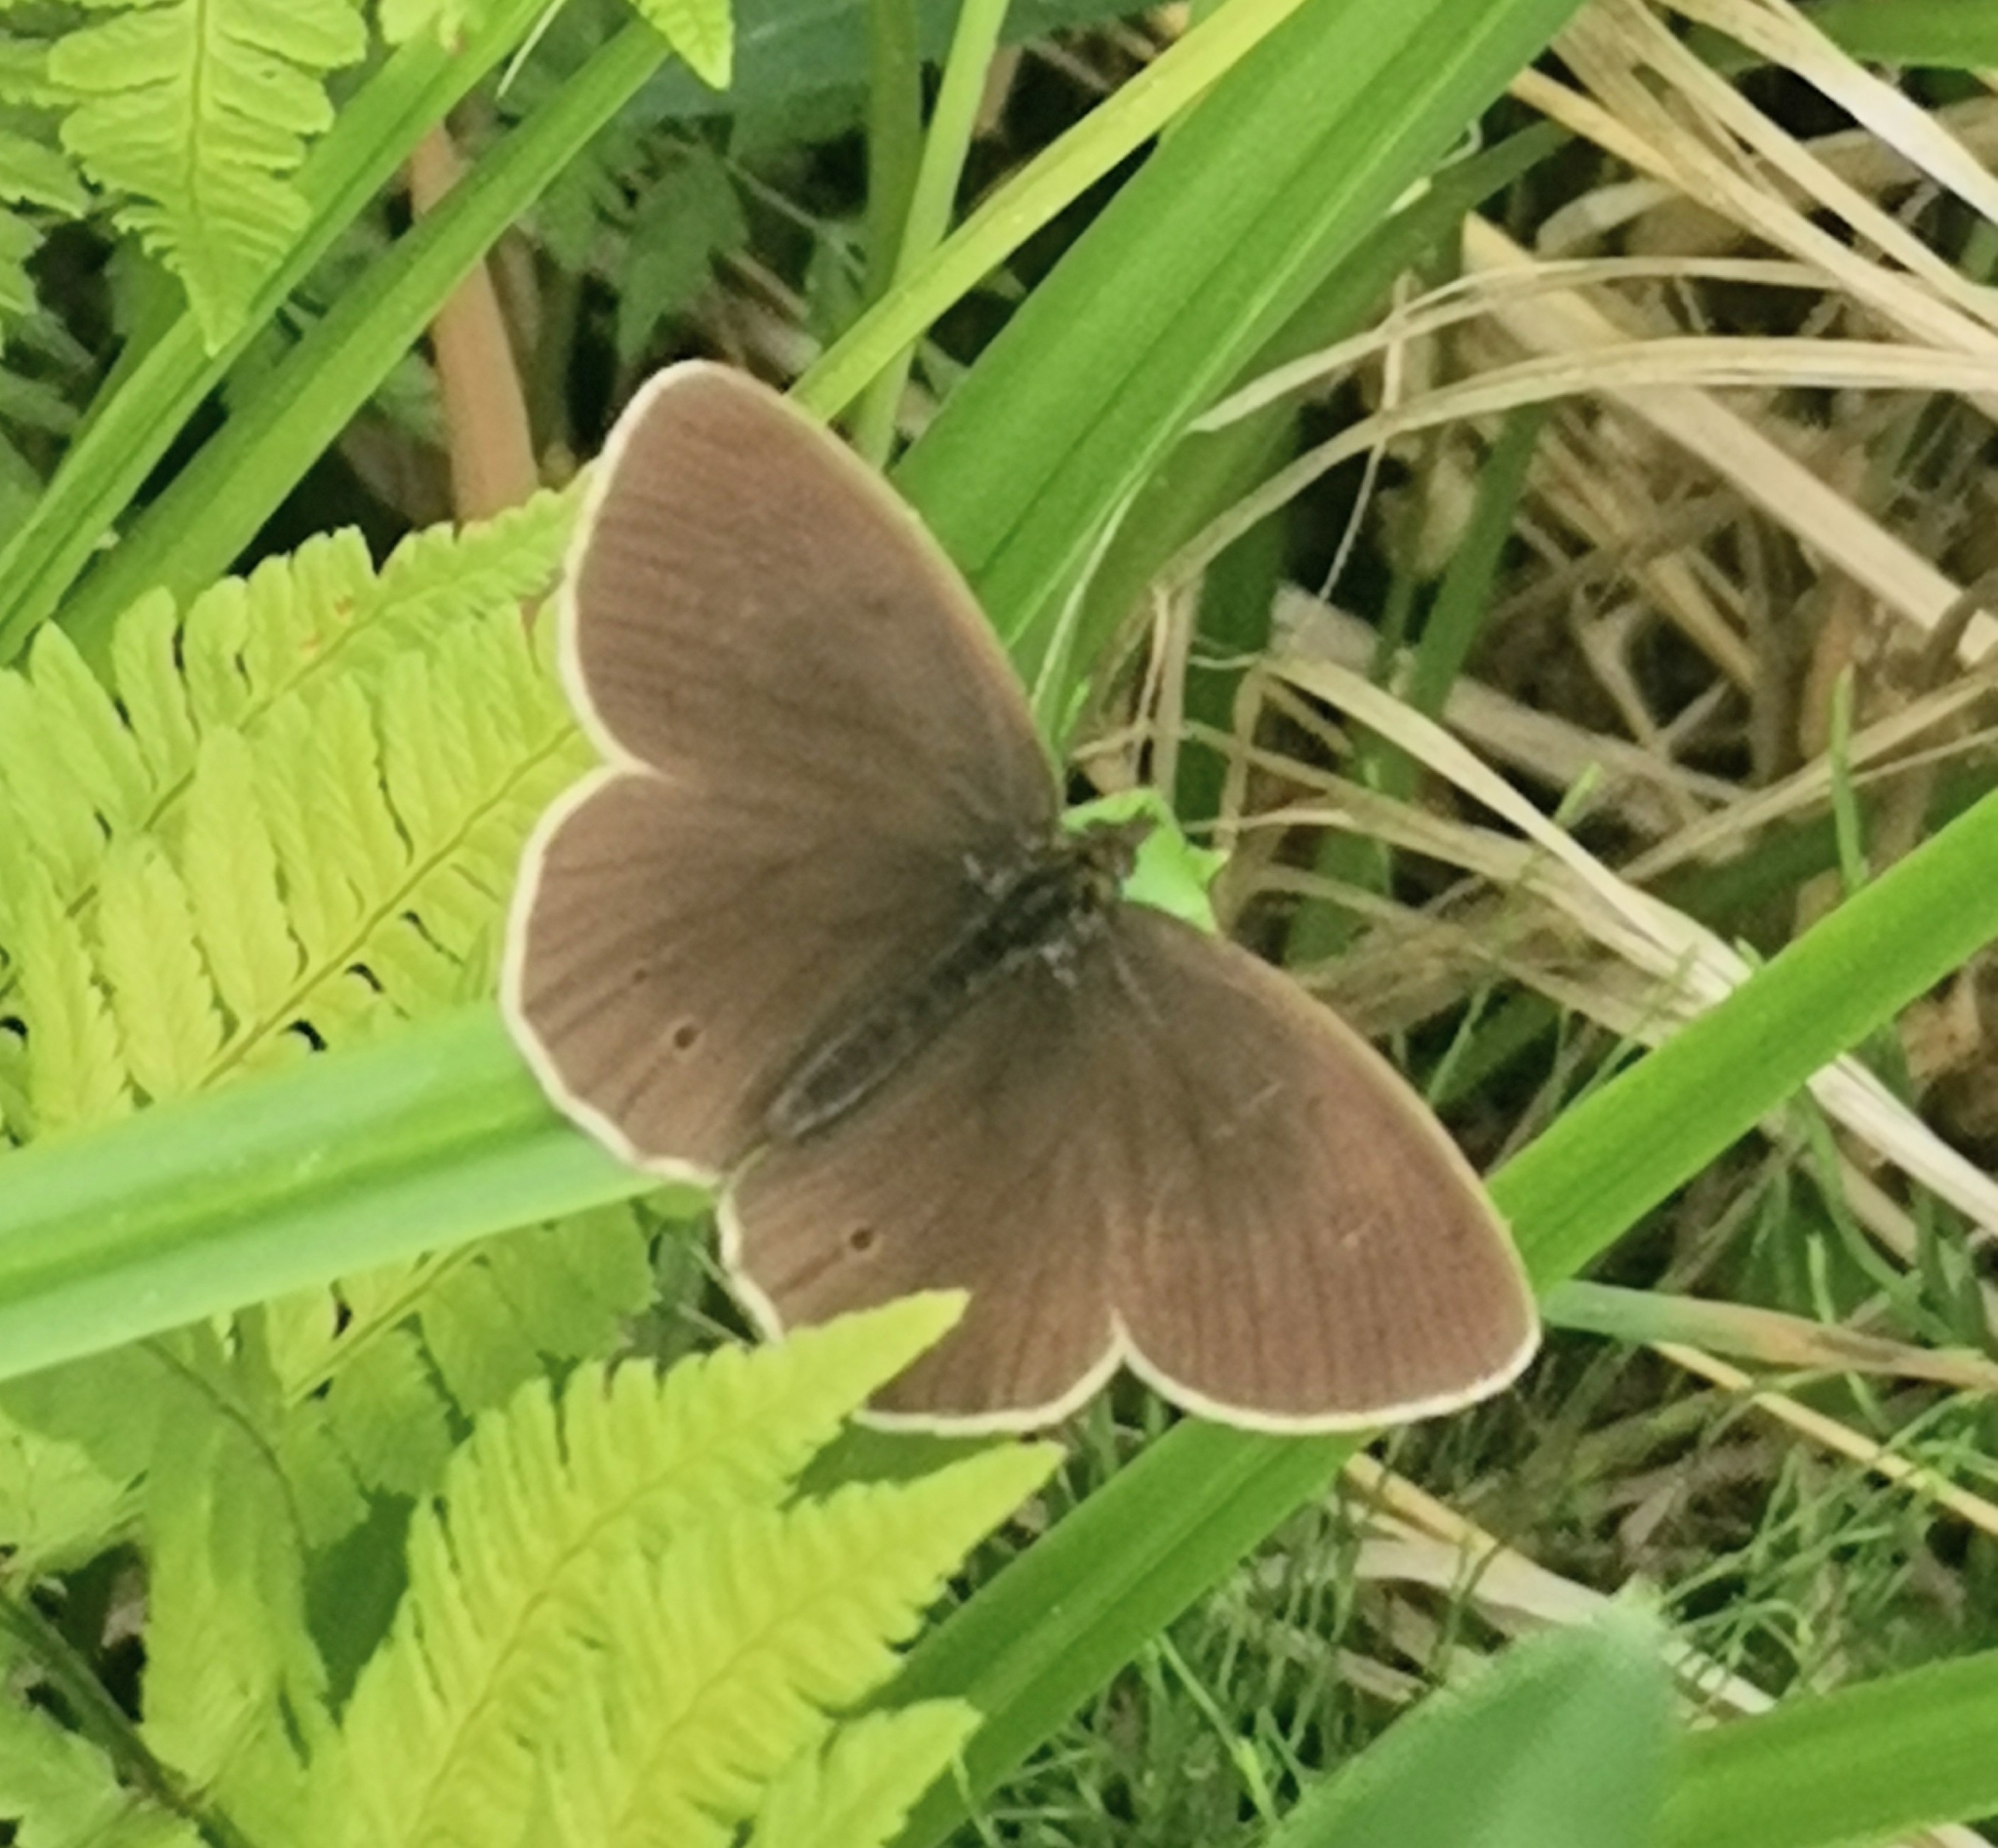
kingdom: Animalia
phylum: Arthropoda
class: Insecta
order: Lepidoptera
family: Nymphalidae
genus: Aphantopus
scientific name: Aphantopus hyperantus
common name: Ringlet
